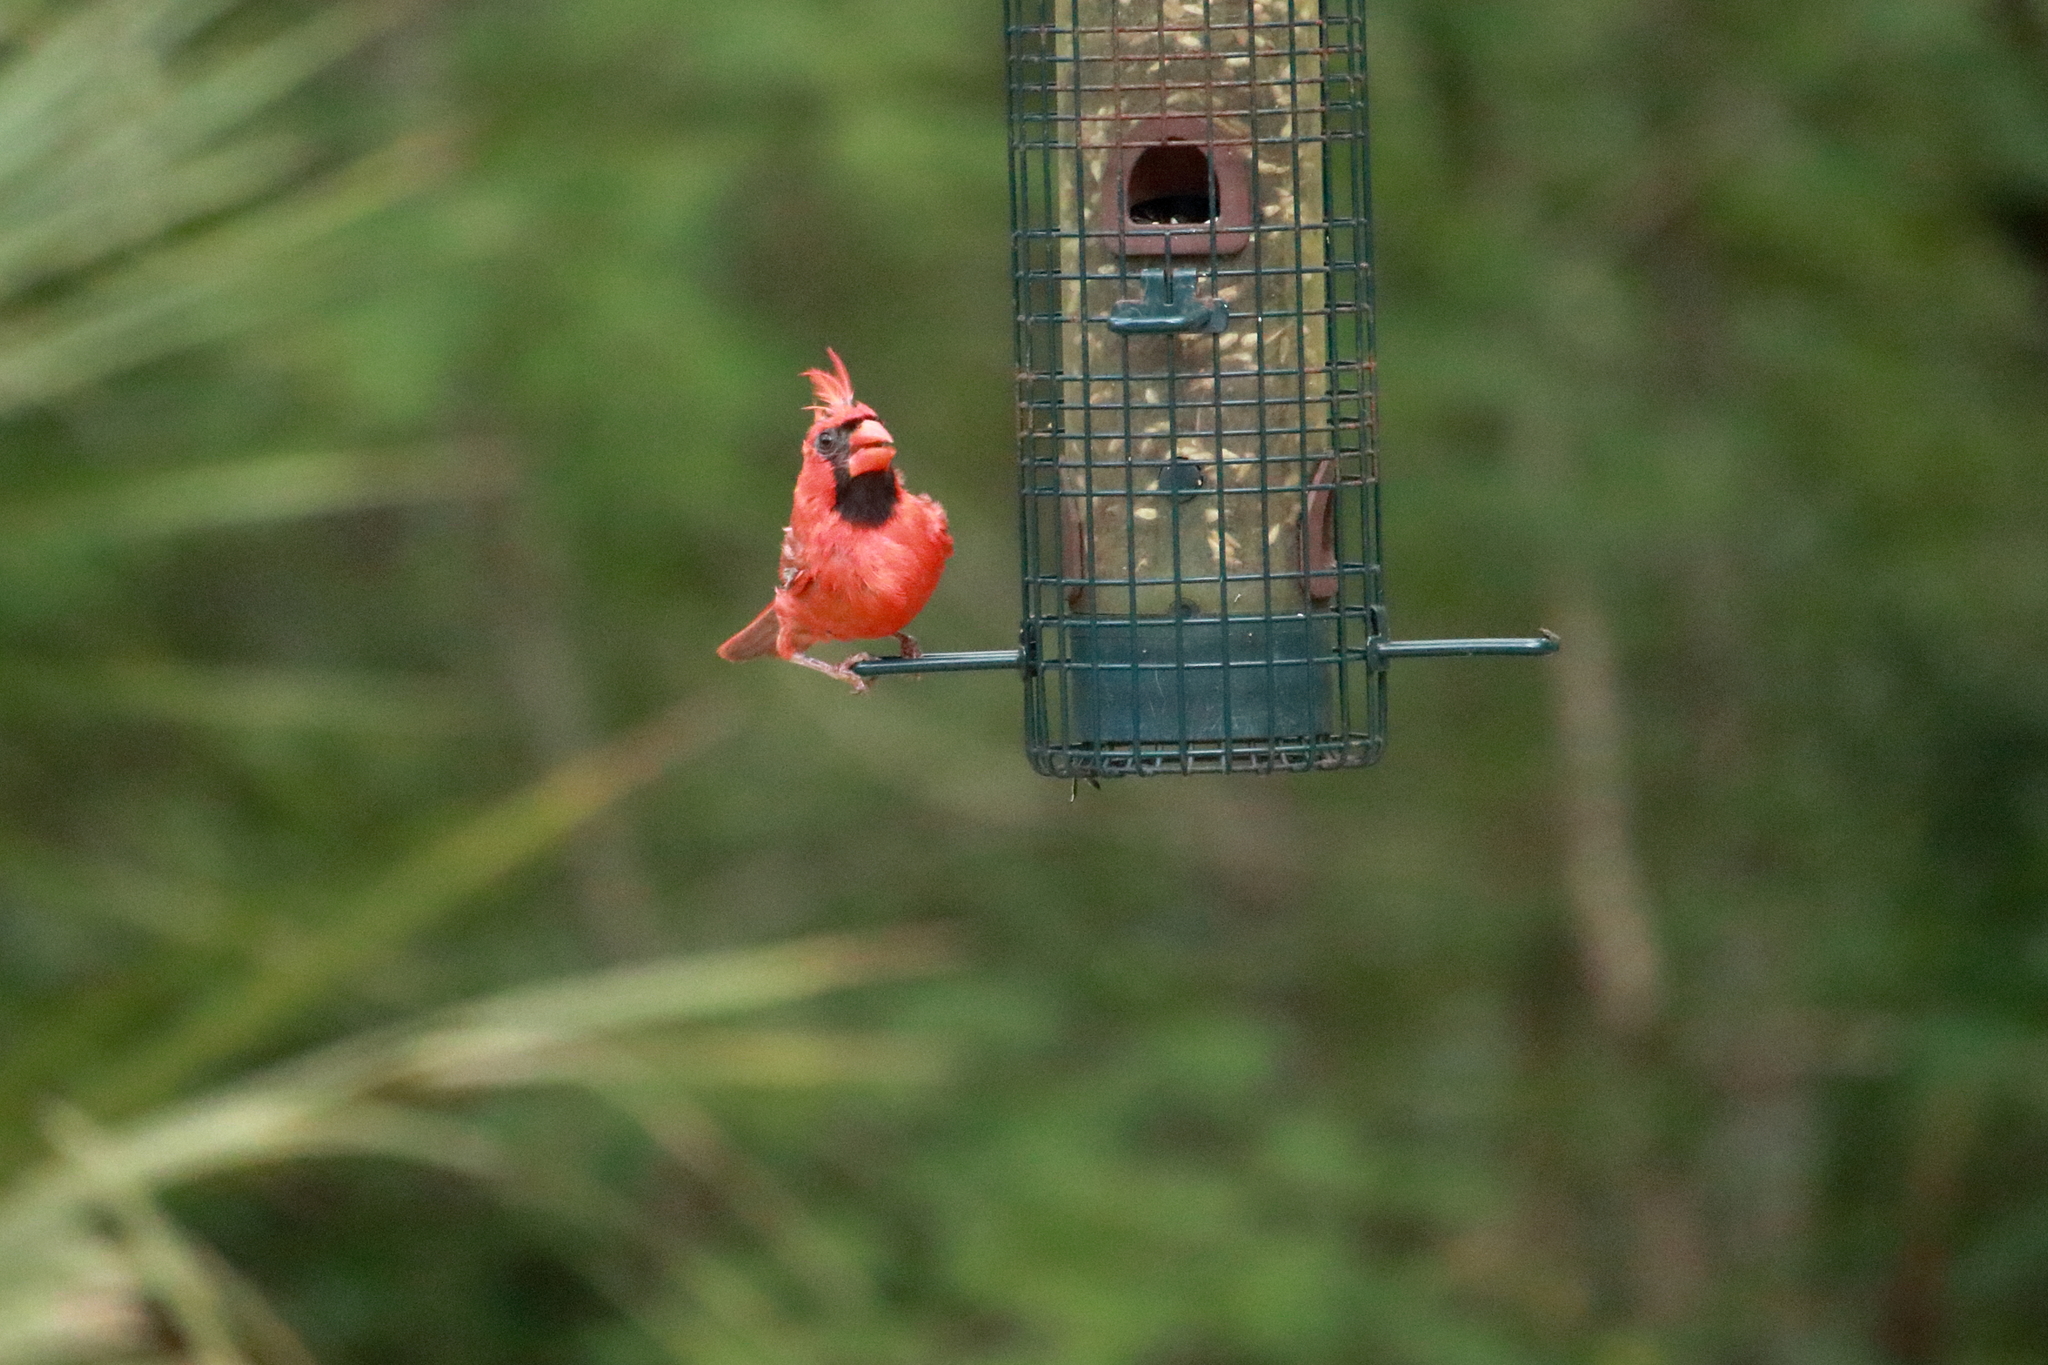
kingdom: Animalia
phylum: Chordata
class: Aves
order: Passeriformes
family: Cardinalidae
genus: Cardinalis
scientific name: Cardinalis cardinalis
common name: Northern cardinal
